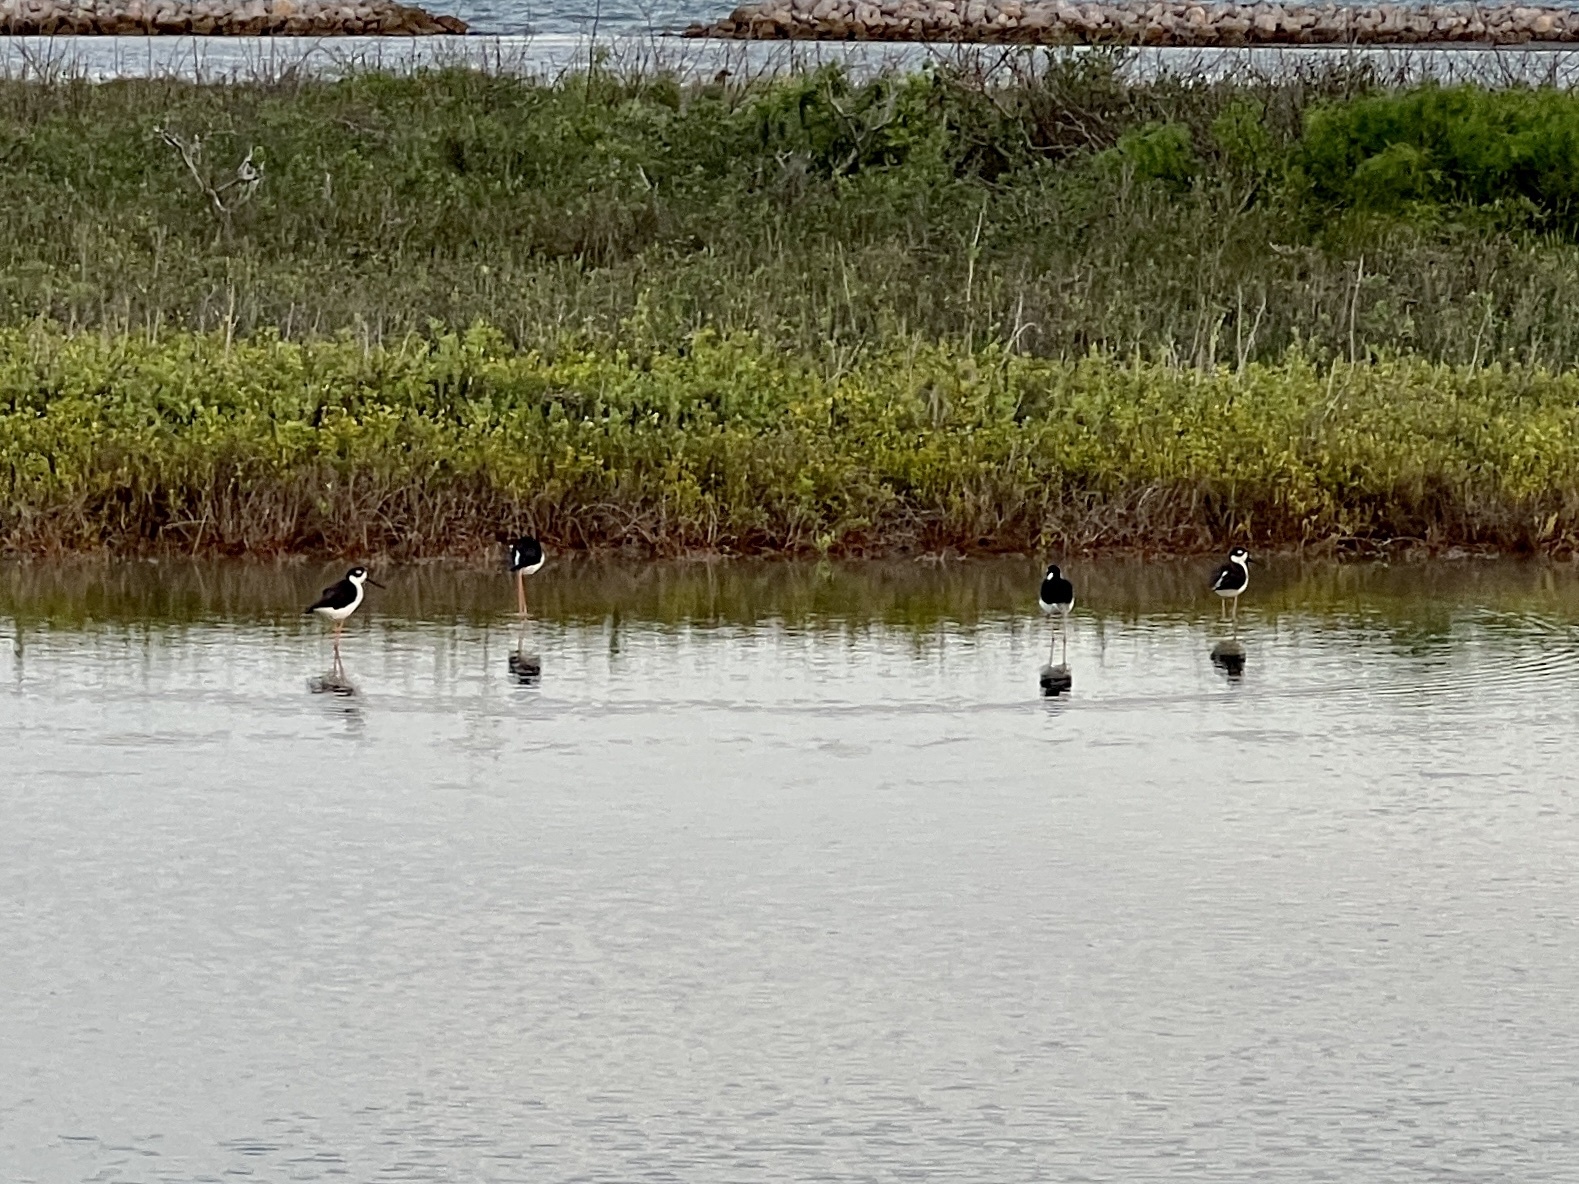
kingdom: Animalia
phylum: Chordata
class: Aves
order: Charadriiformes
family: Recurvirostridae
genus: Himantopus
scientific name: Himantopus mexicanus
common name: Black-necked stilt
